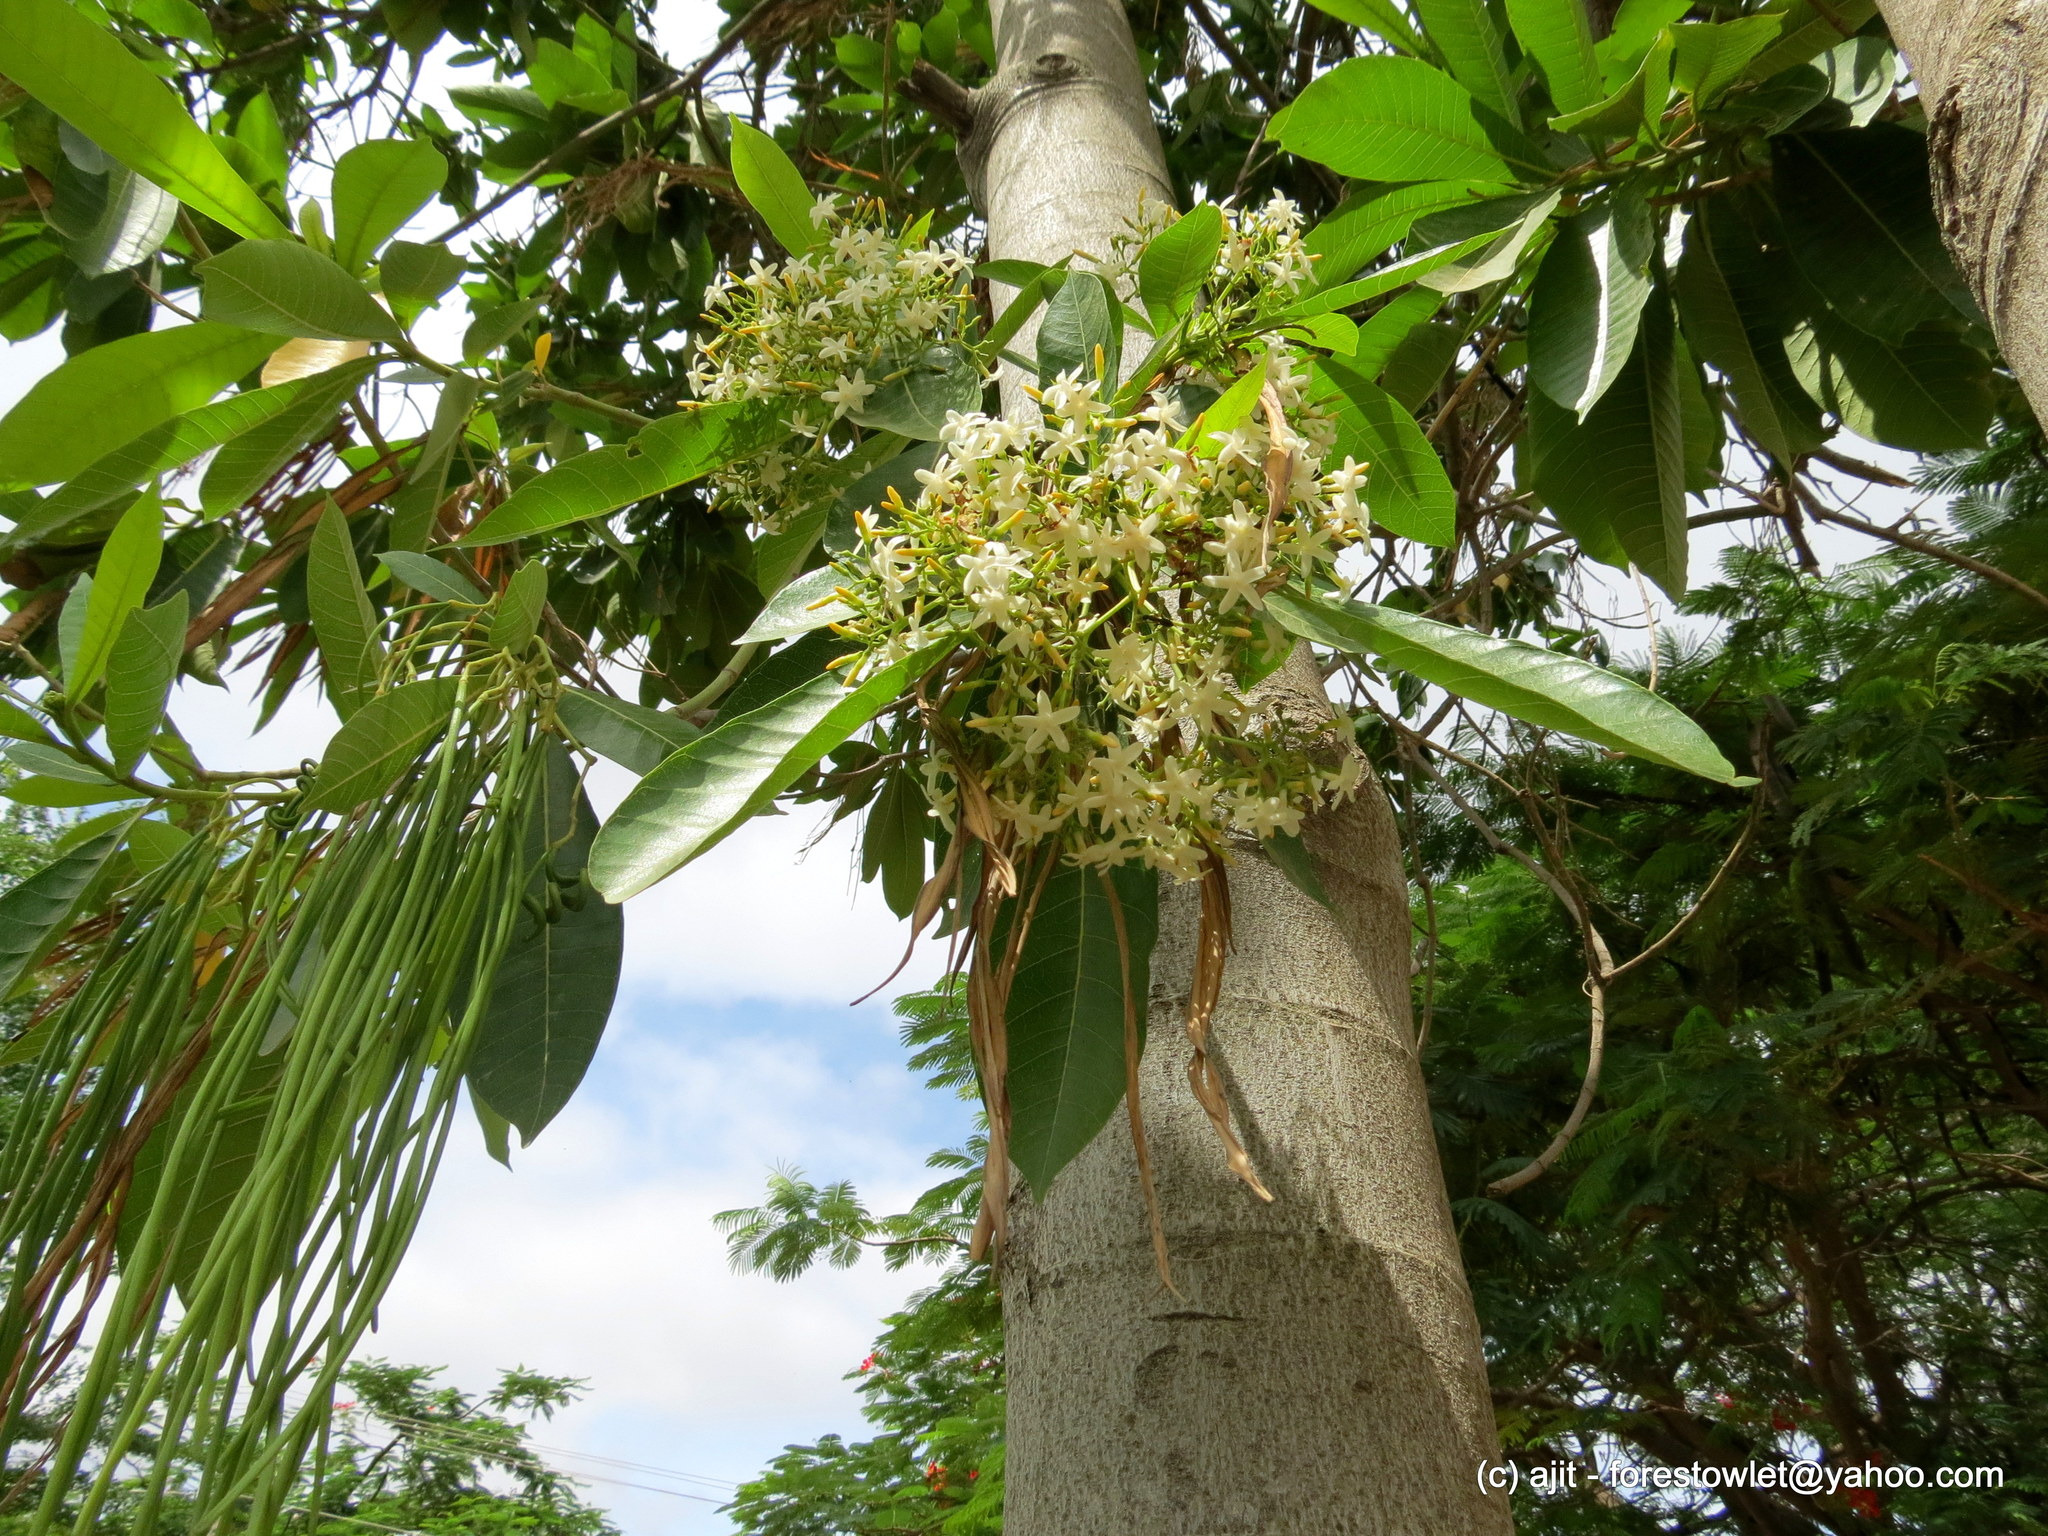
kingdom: Plantae
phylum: Tracheophyta
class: Magnoliopsida
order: Gentianales
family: Apocynaceae
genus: Alstonia
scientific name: Alstonia macrophylla
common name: Deviltree
